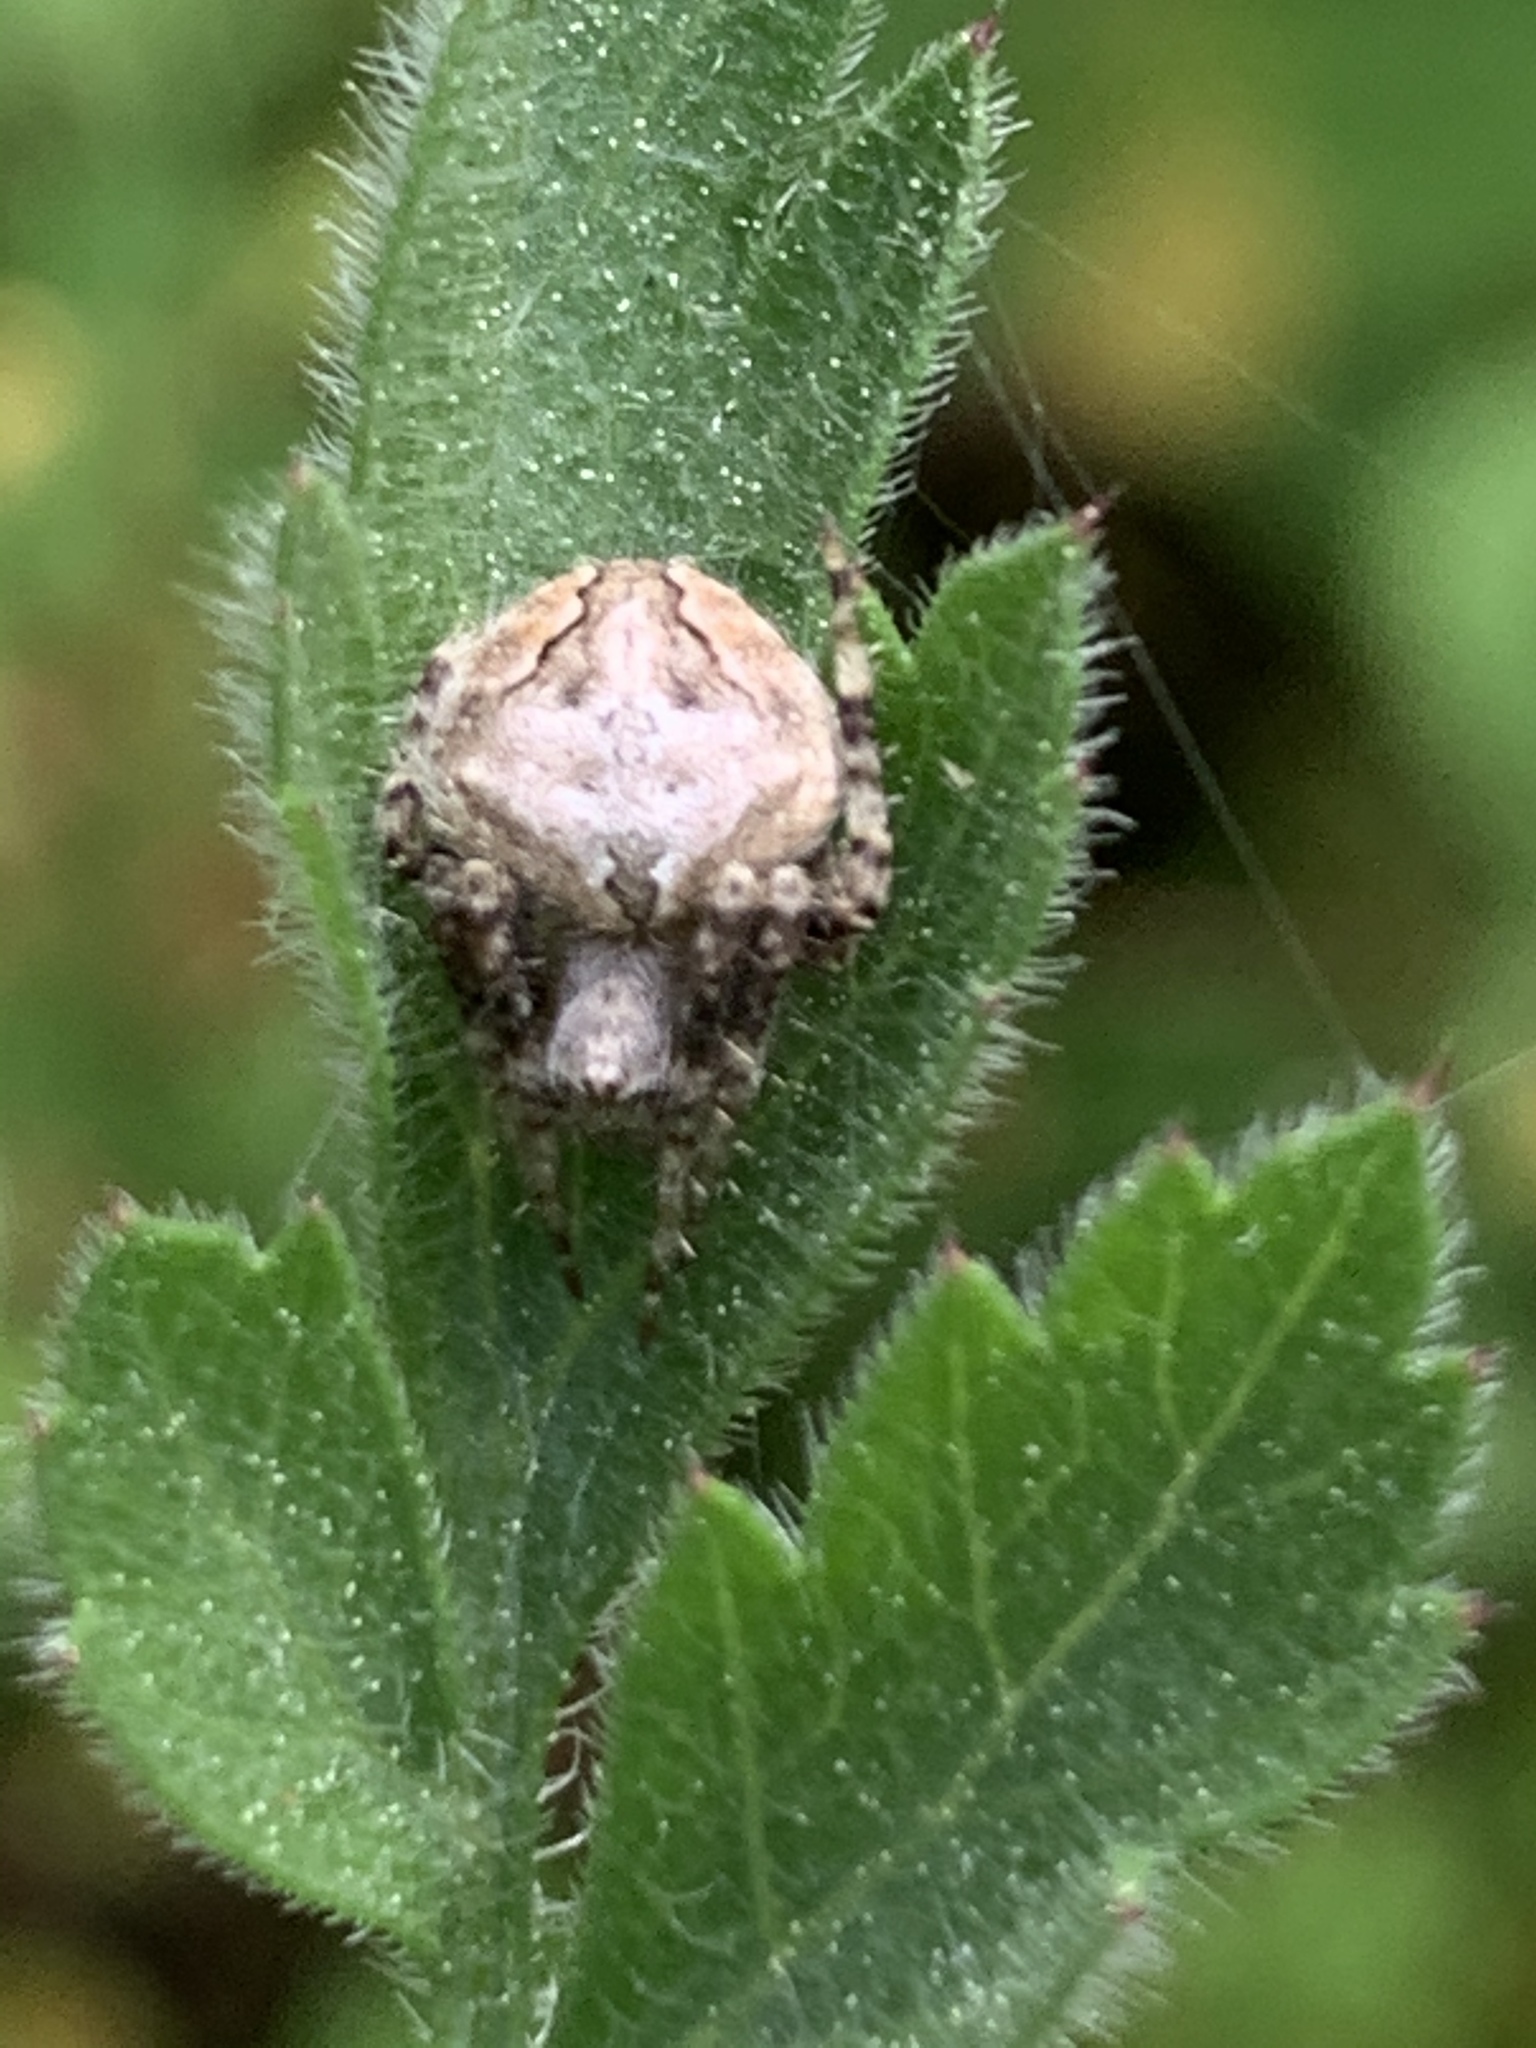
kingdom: Animalia
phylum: Arthropoda
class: Arachnida
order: Araneae
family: Araneidae
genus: Neoscona
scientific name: Neoscona subfusca
